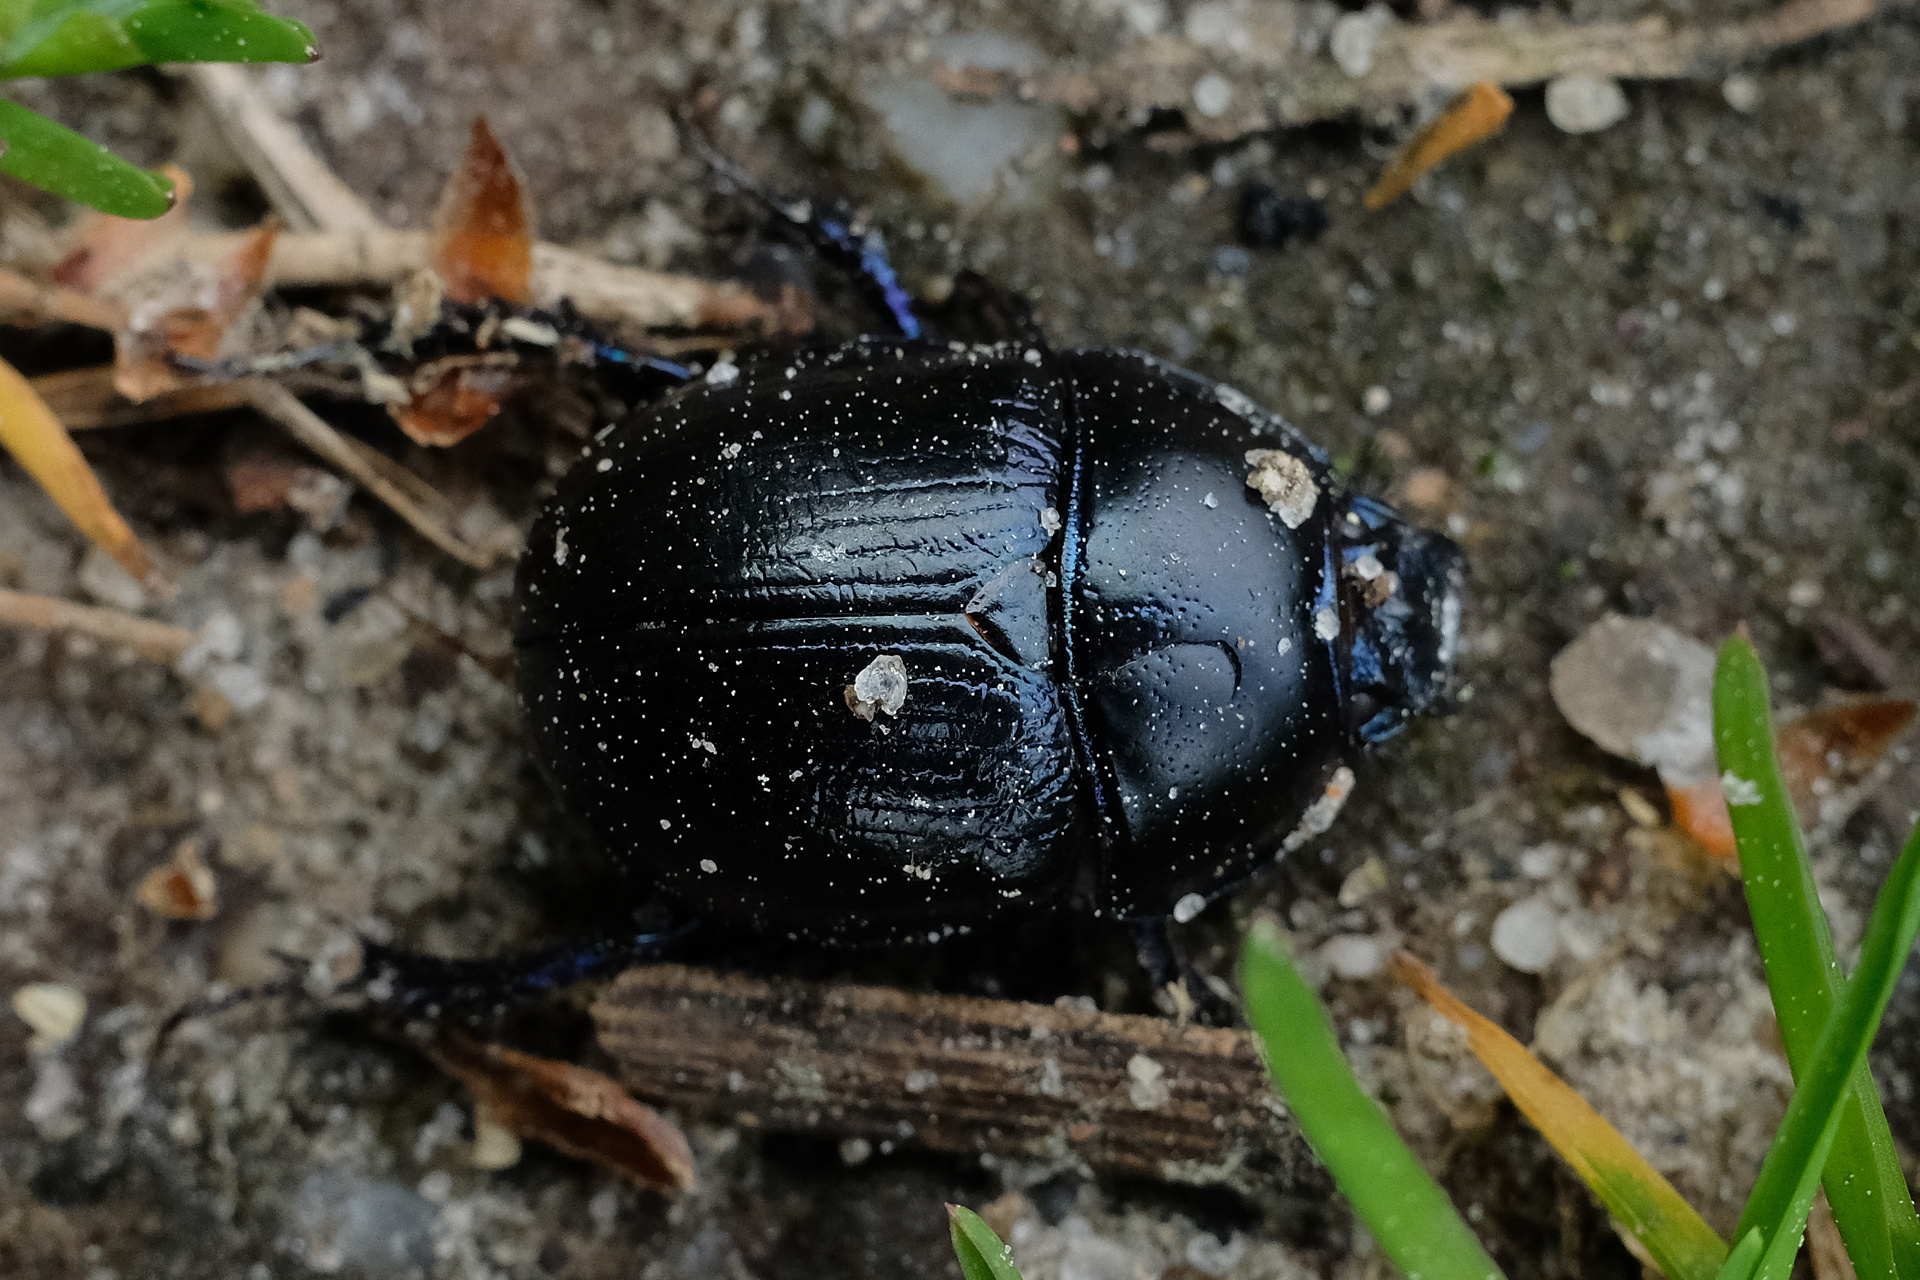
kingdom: Animalia
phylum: Arthropoda
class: Insecta
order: Coleoptera
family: Geotrupidae
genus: Anoplotrupes
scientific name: Anoplotrupes stercorosus
